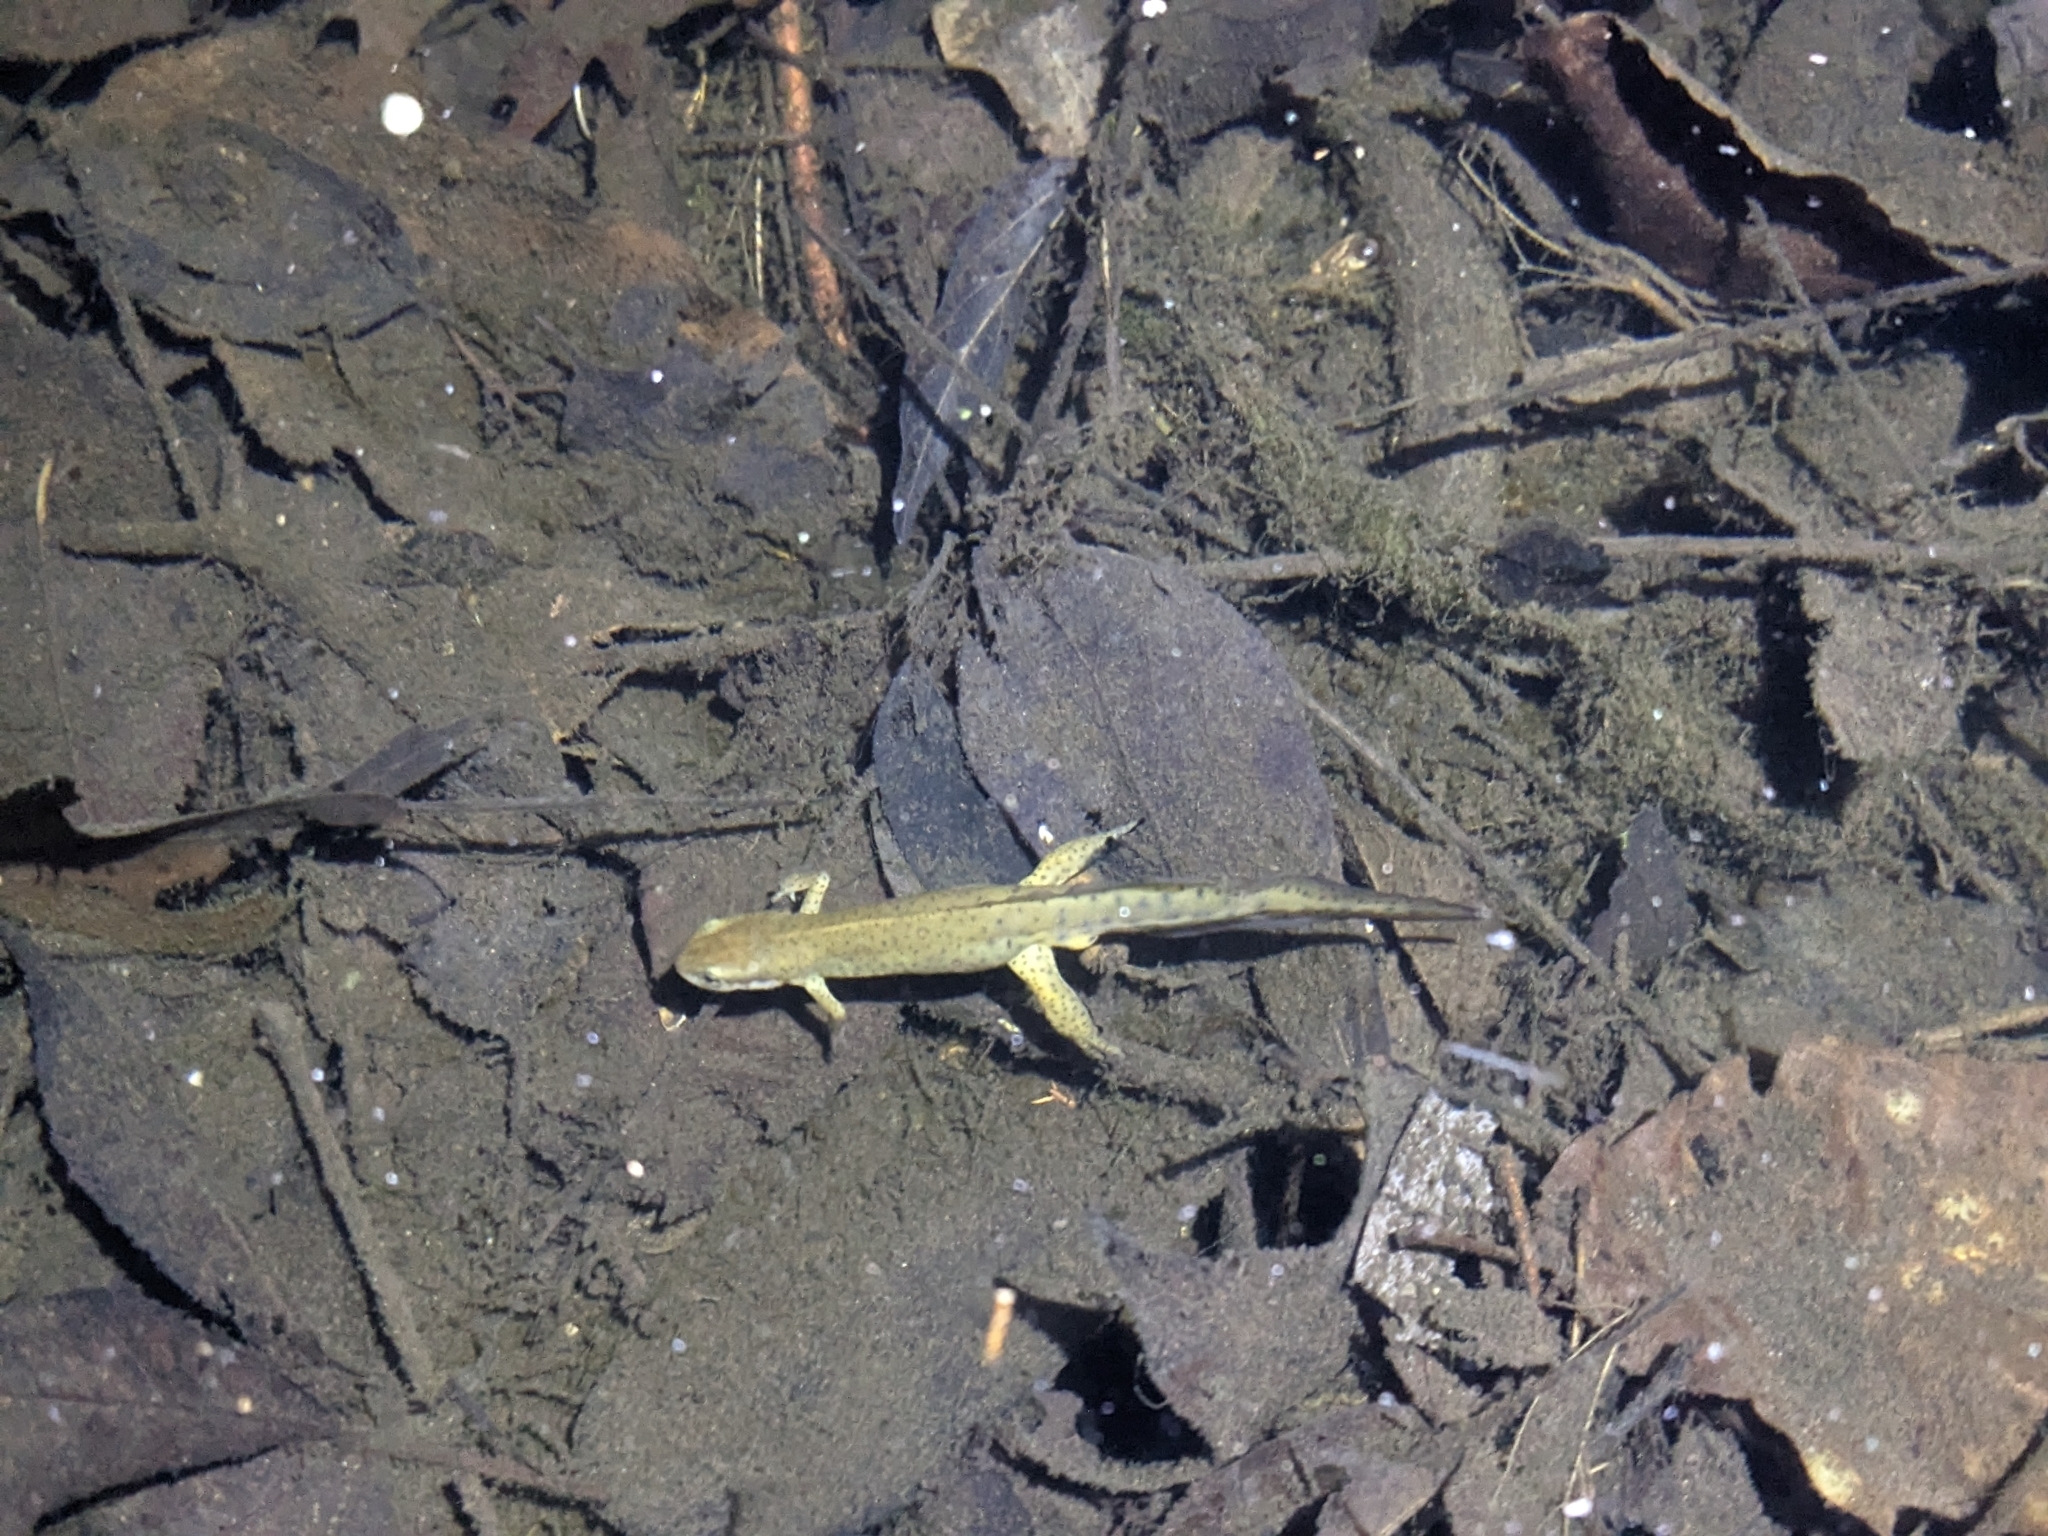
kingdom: Animalia
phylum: Chordata
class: Amphibia
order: Caudata
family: Salamandridae
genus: Notophthalmus
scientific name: Notophthalmus viridescens
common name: Eastern newt
